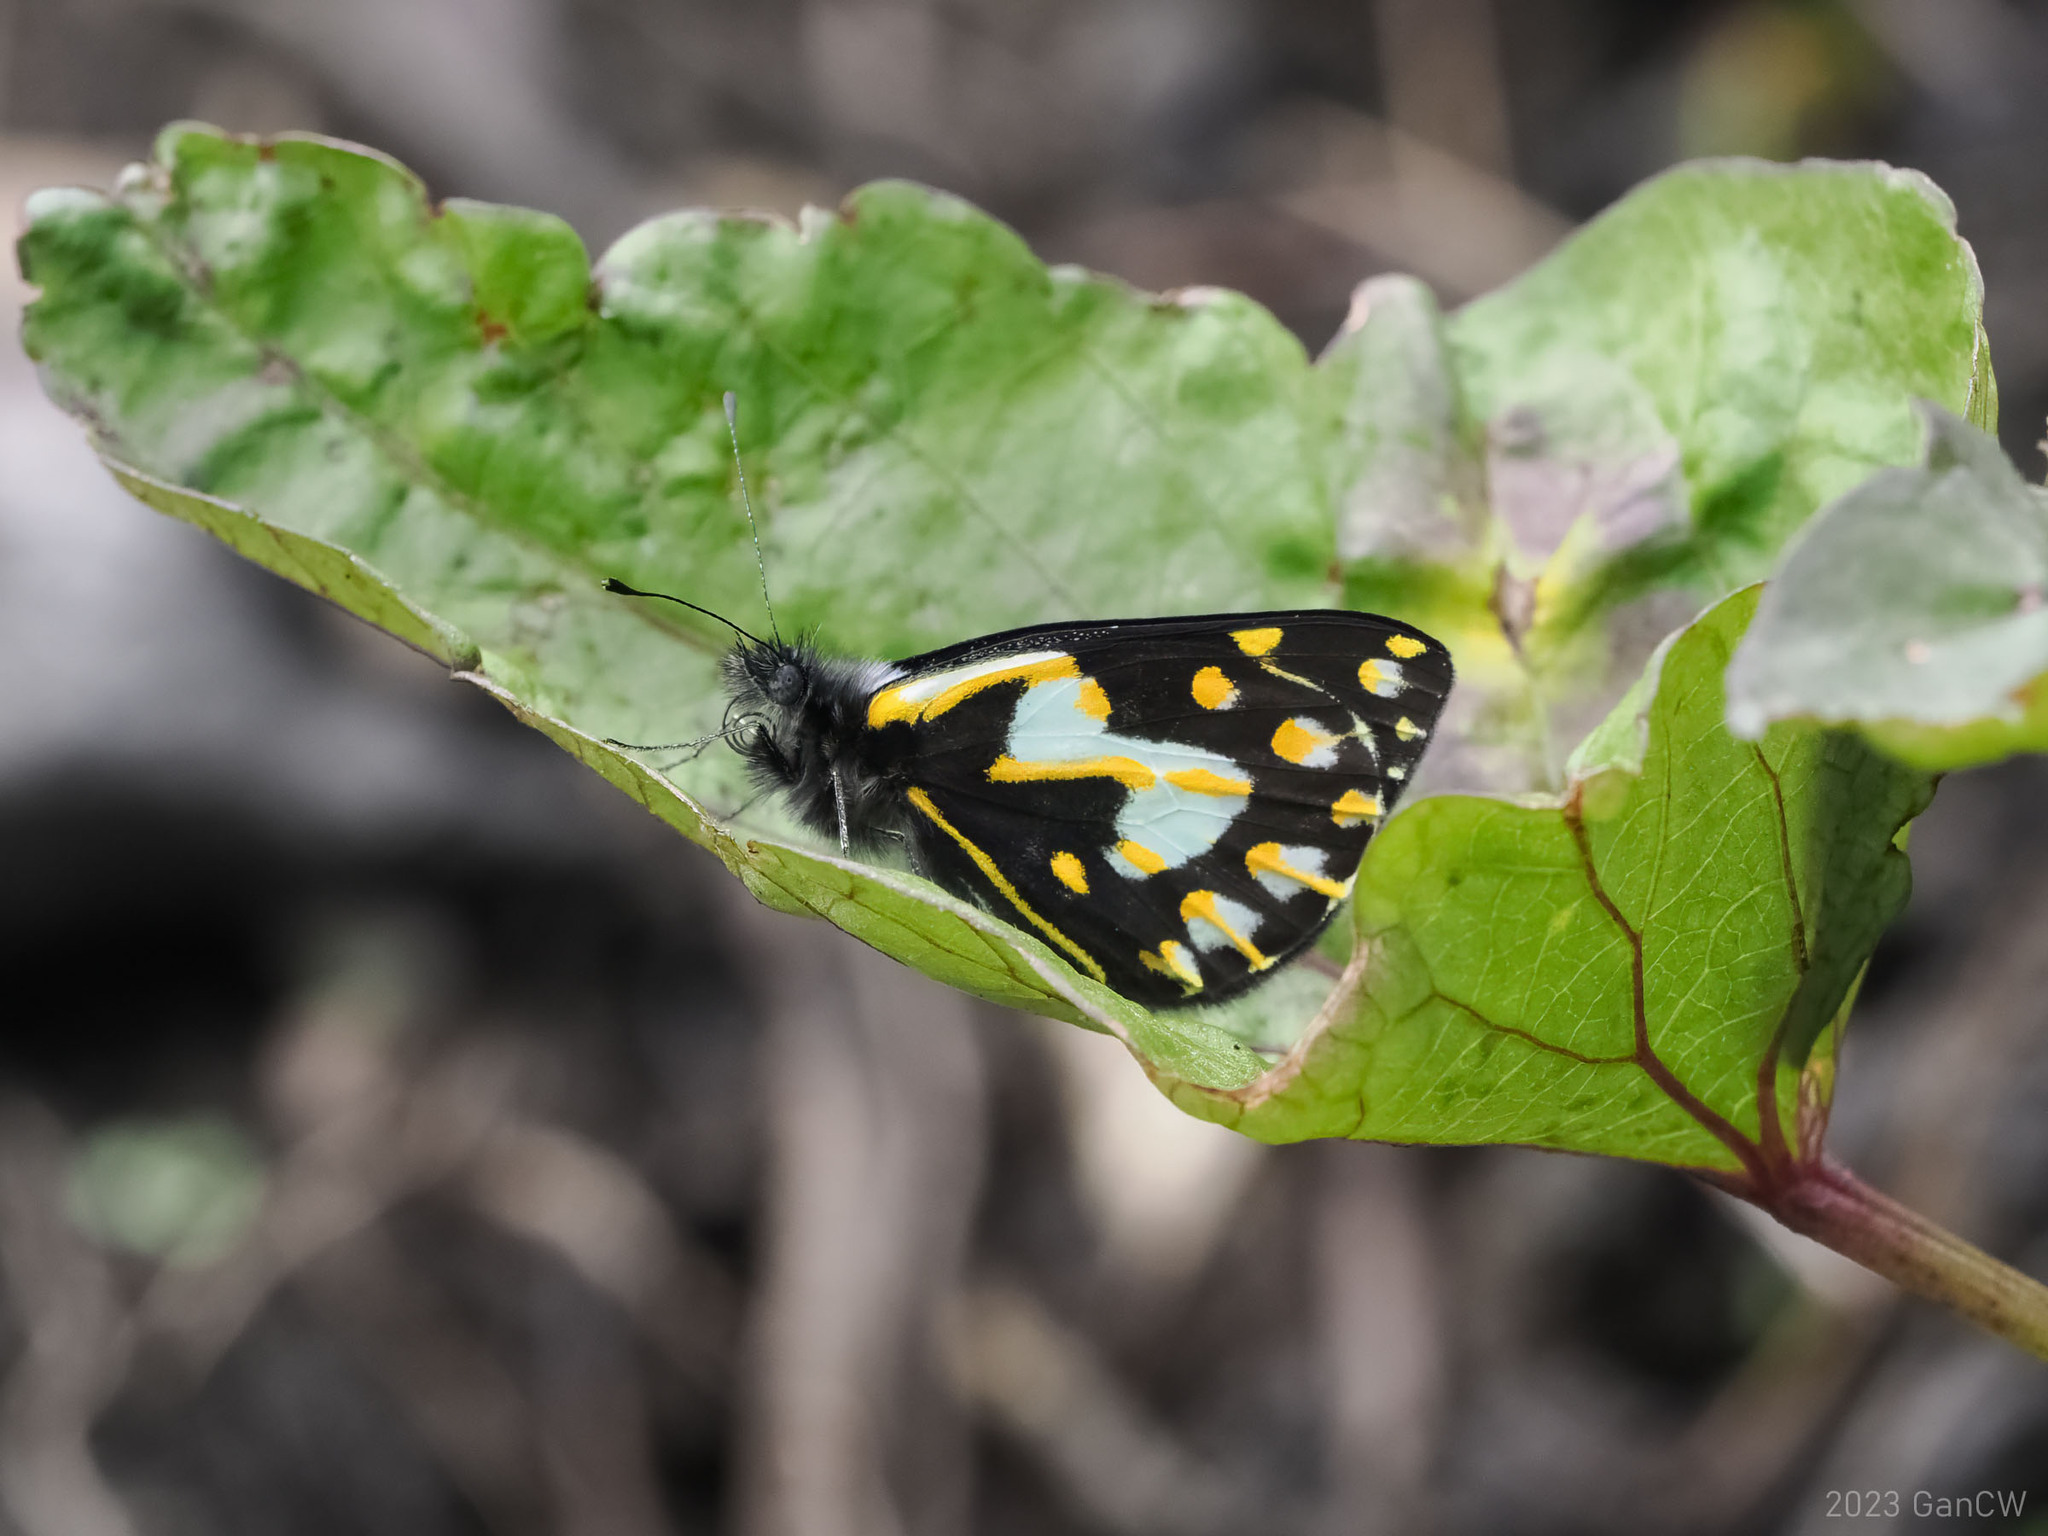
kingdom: Animalia
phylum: Arthropoda
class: Insecta
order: Lepidoptera
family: Pieridae
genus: Delias
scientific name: Delias toxopei
